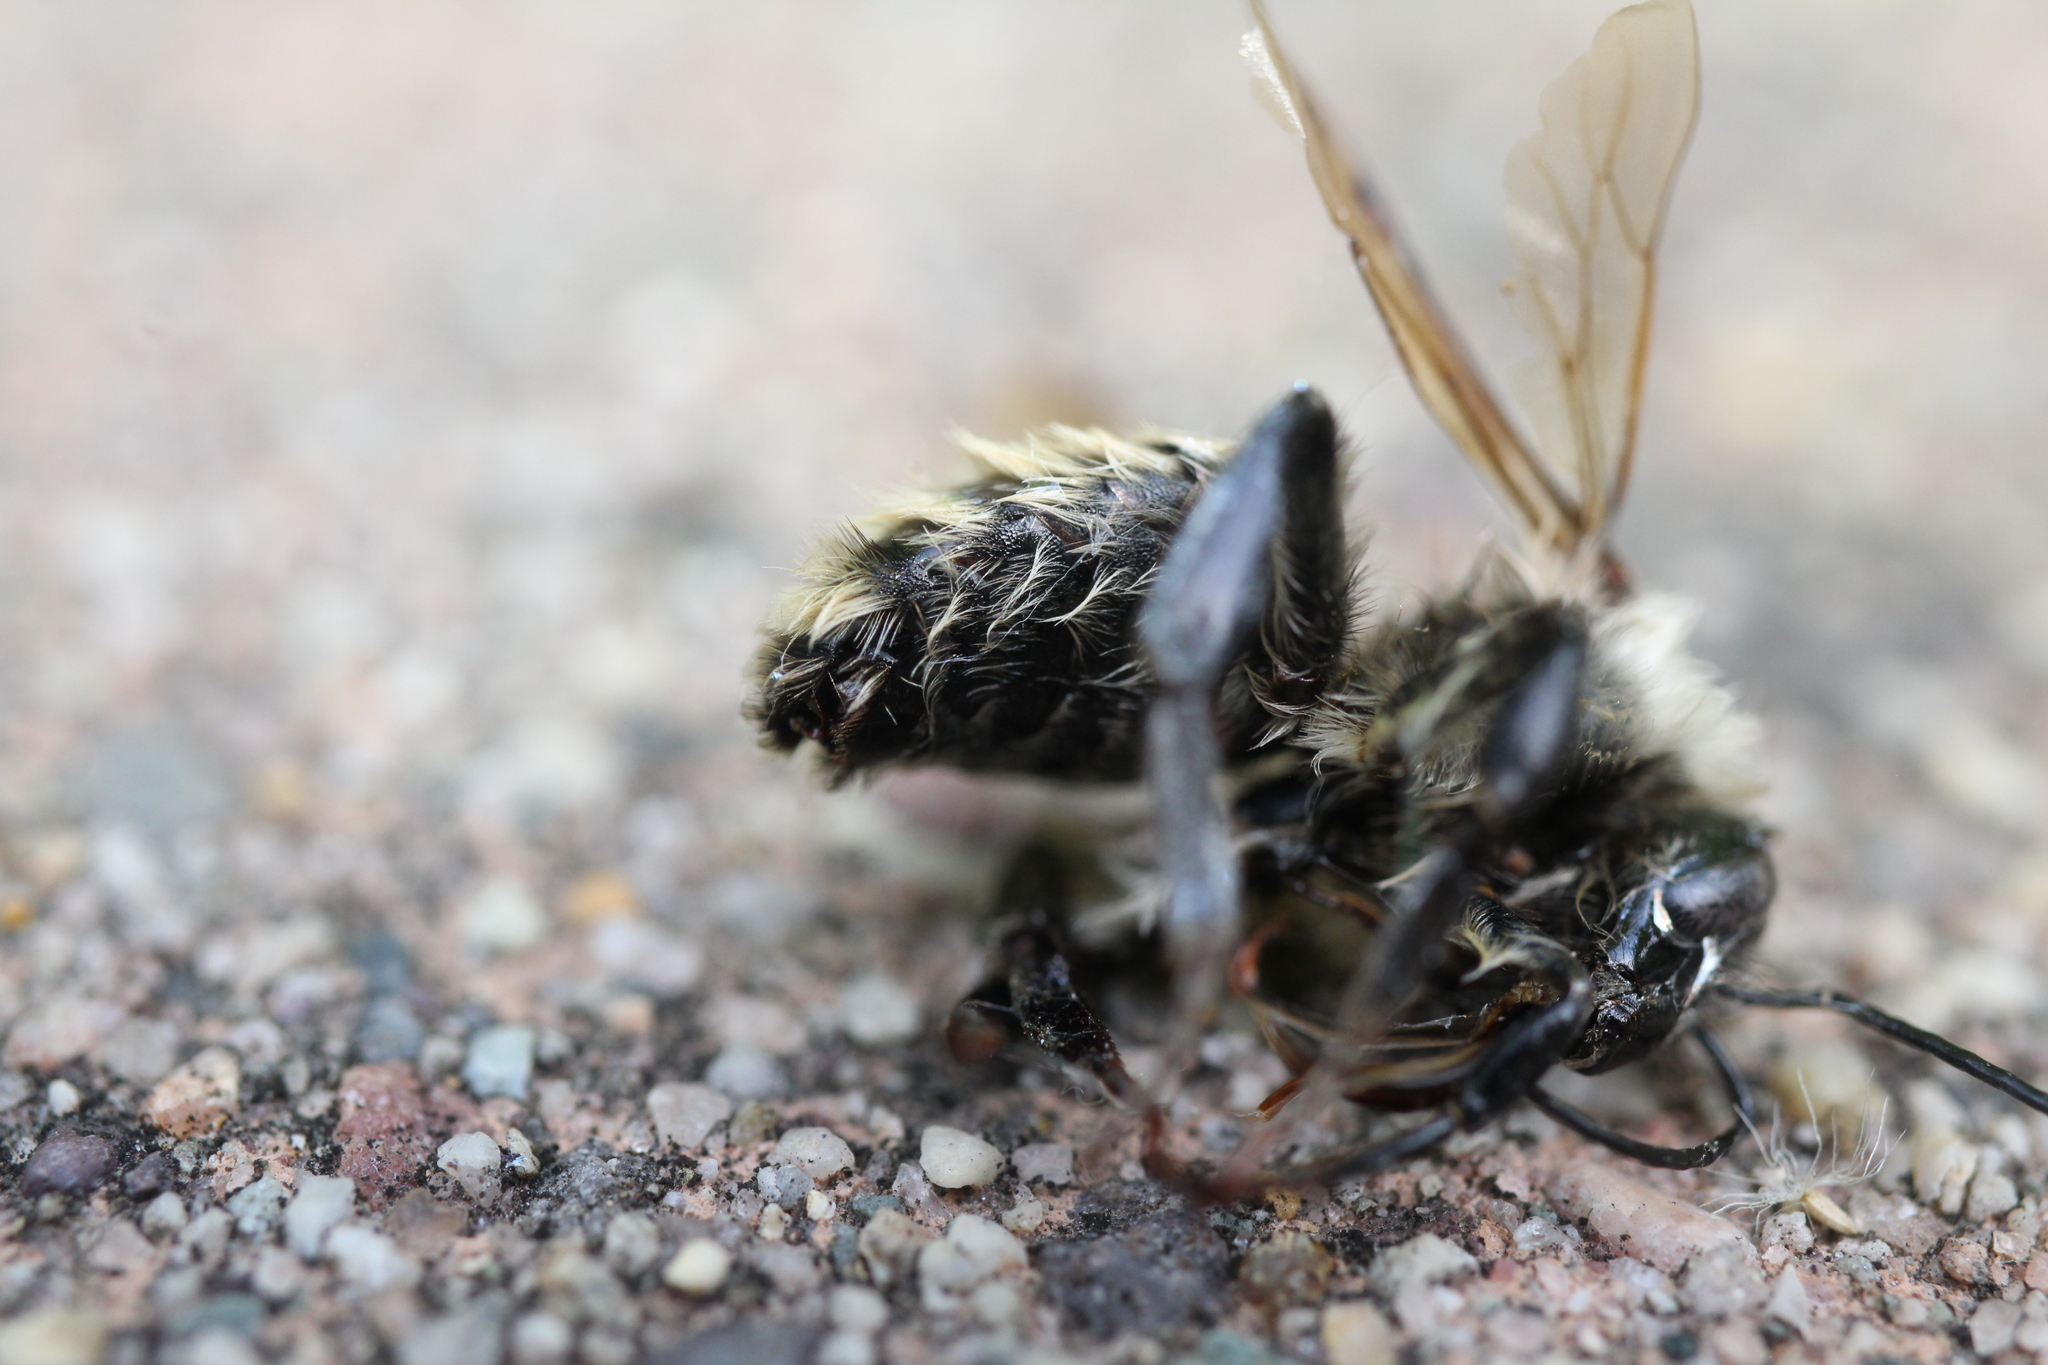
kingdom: Animalia
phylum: Arthropoda
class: Insecta
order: Hymenoptera
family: Apidae
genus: Bombus
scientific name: Bombus
